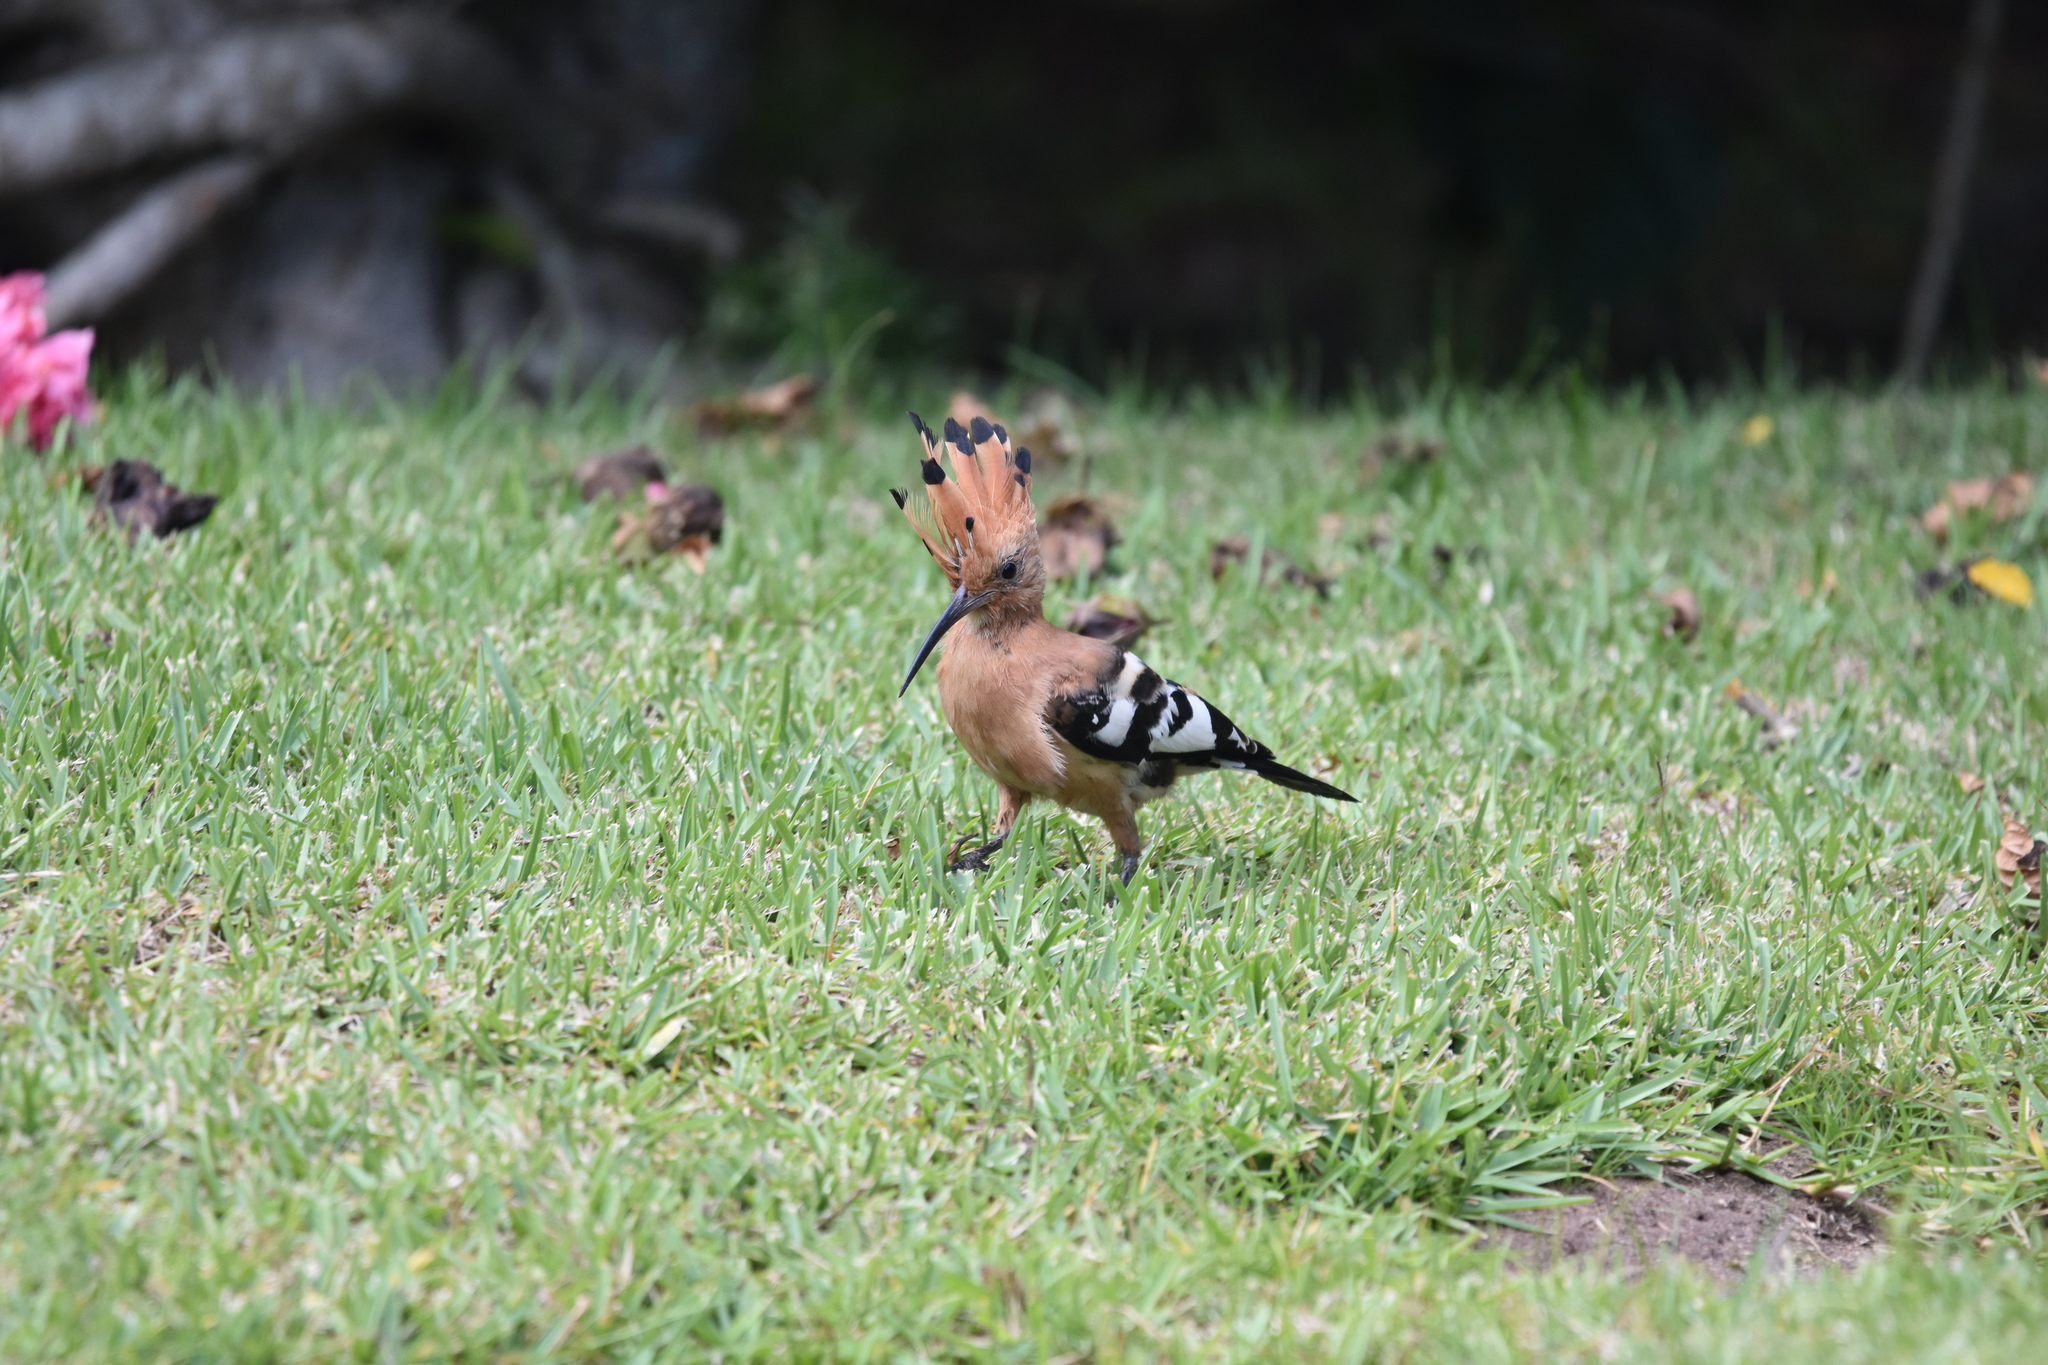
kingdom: Animalia
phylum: Chordata
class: Aves
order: Bucerotiformes
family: Upupidae
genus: Upupa
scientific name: Upupa africana
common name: African hoopoe
